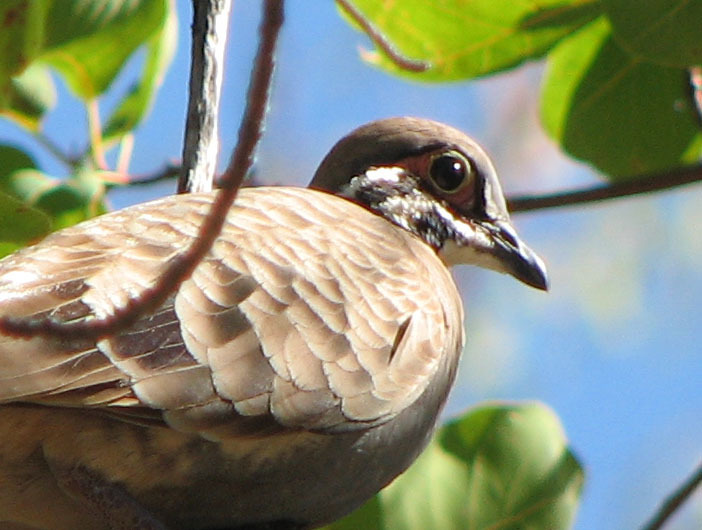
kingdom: Animalia
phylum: Chordata
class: Aves
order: Columbiformes
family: Columbidae
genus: Geophaps
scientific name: Geophaps scripta
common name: Squatter pigeon
